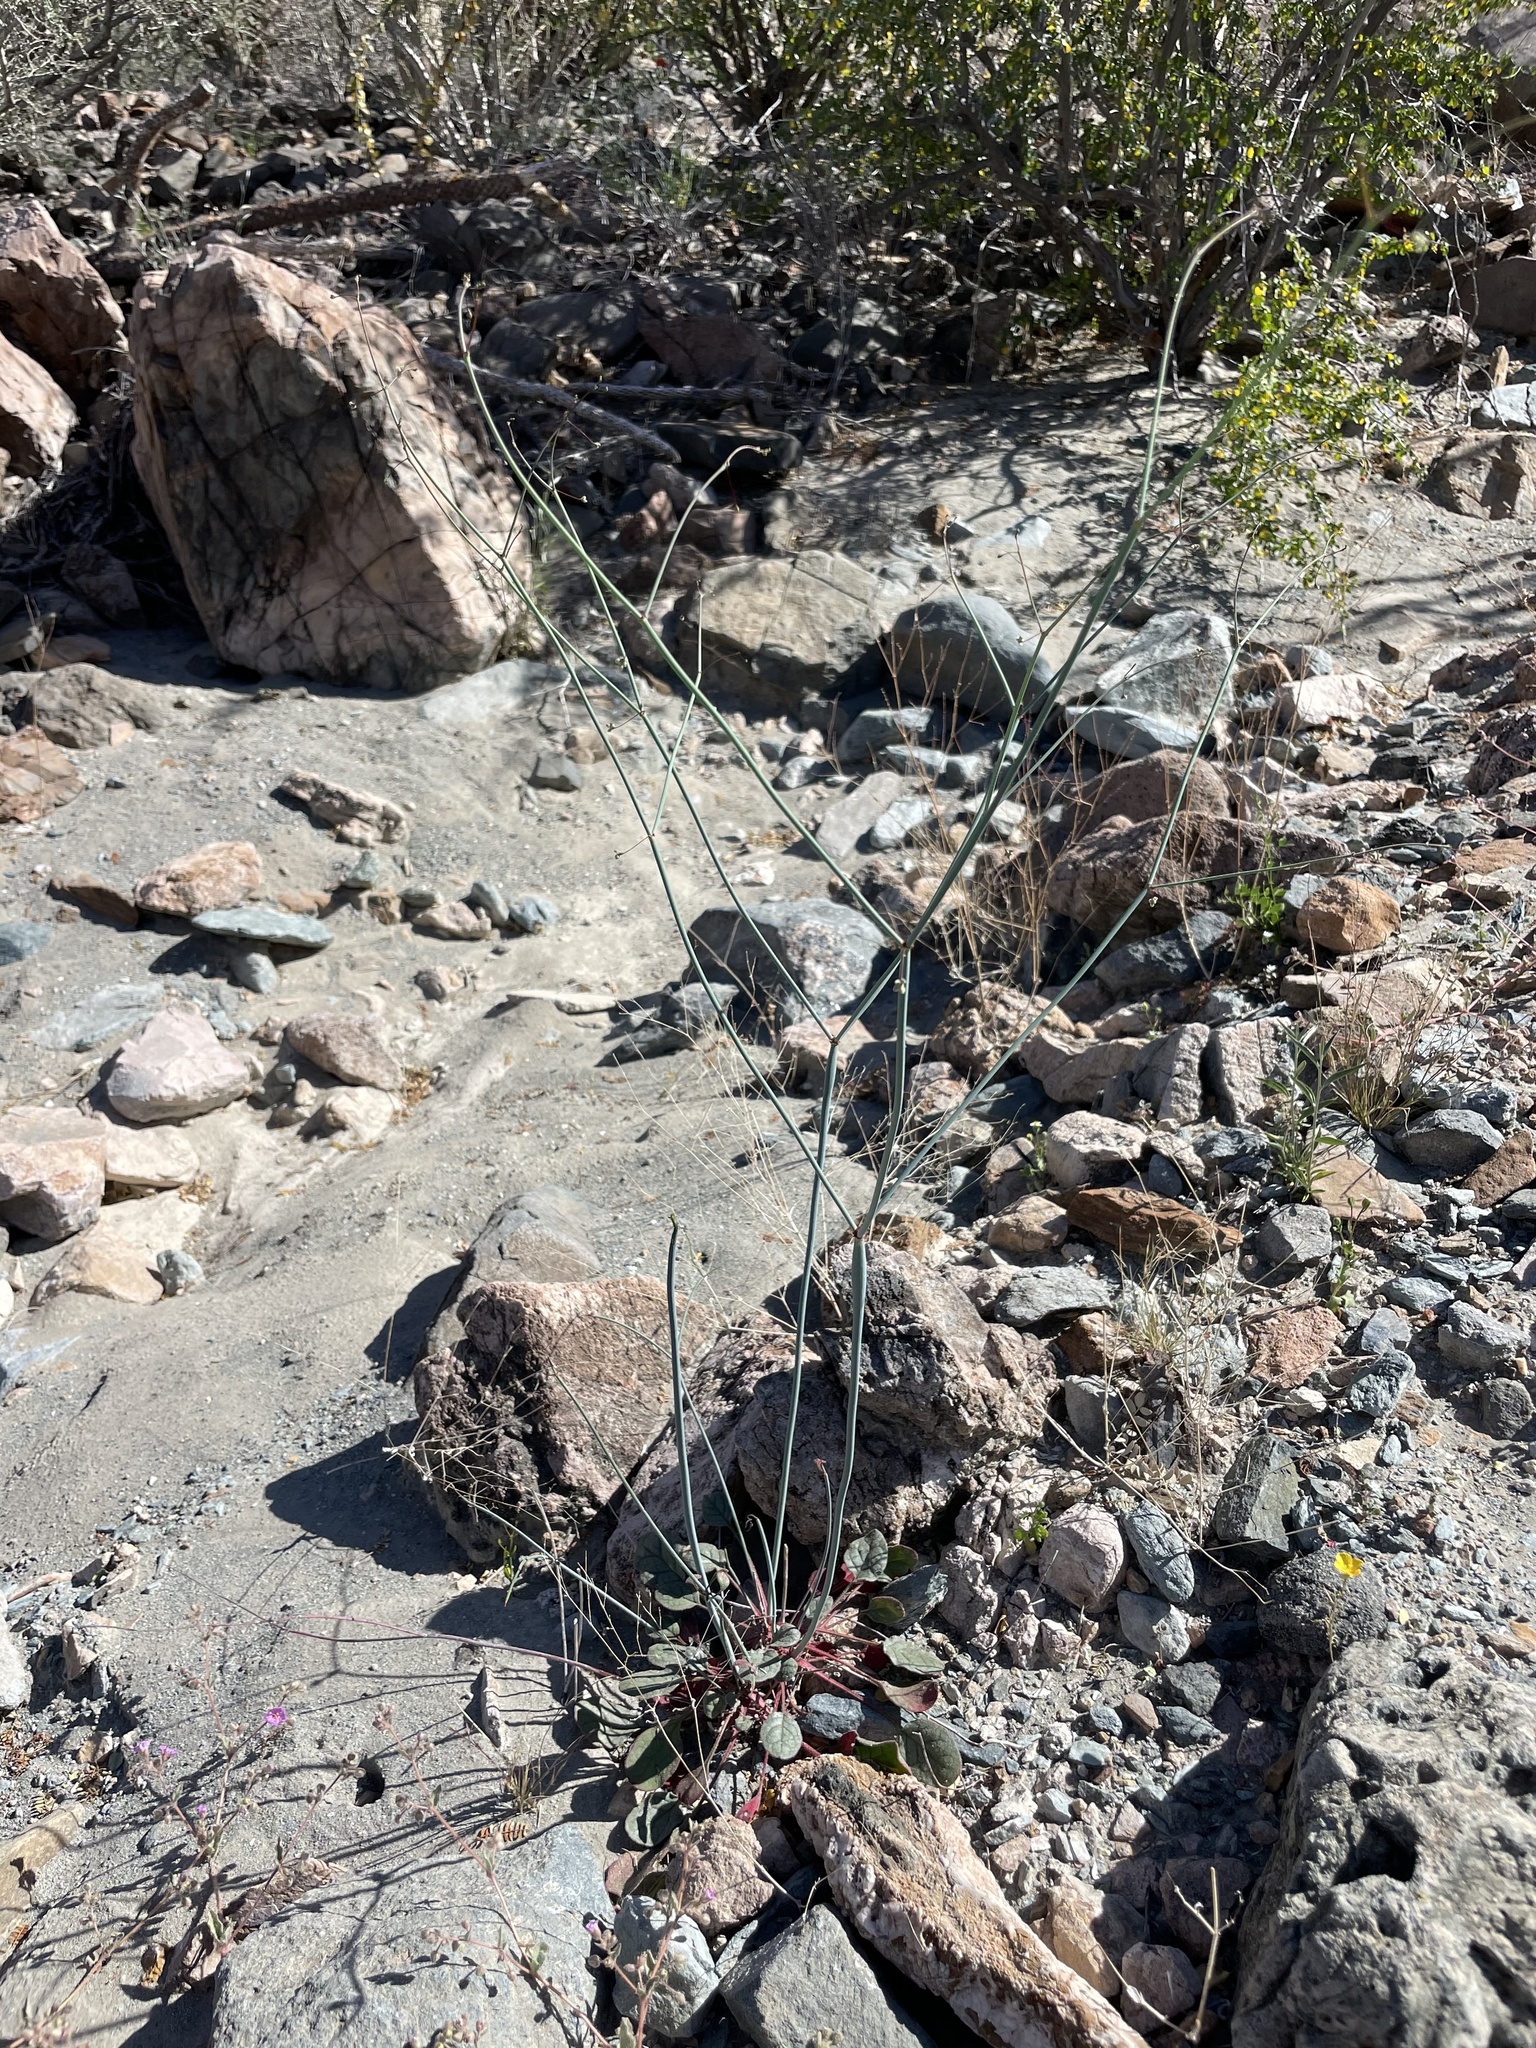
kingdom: Plantae
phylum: Tracheophyta
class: Magnoliopsida
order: Caryophyllales
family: Polygonaceae
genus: Eriogonum
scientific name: Eriogonum inflatum
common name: Desert trumpet
